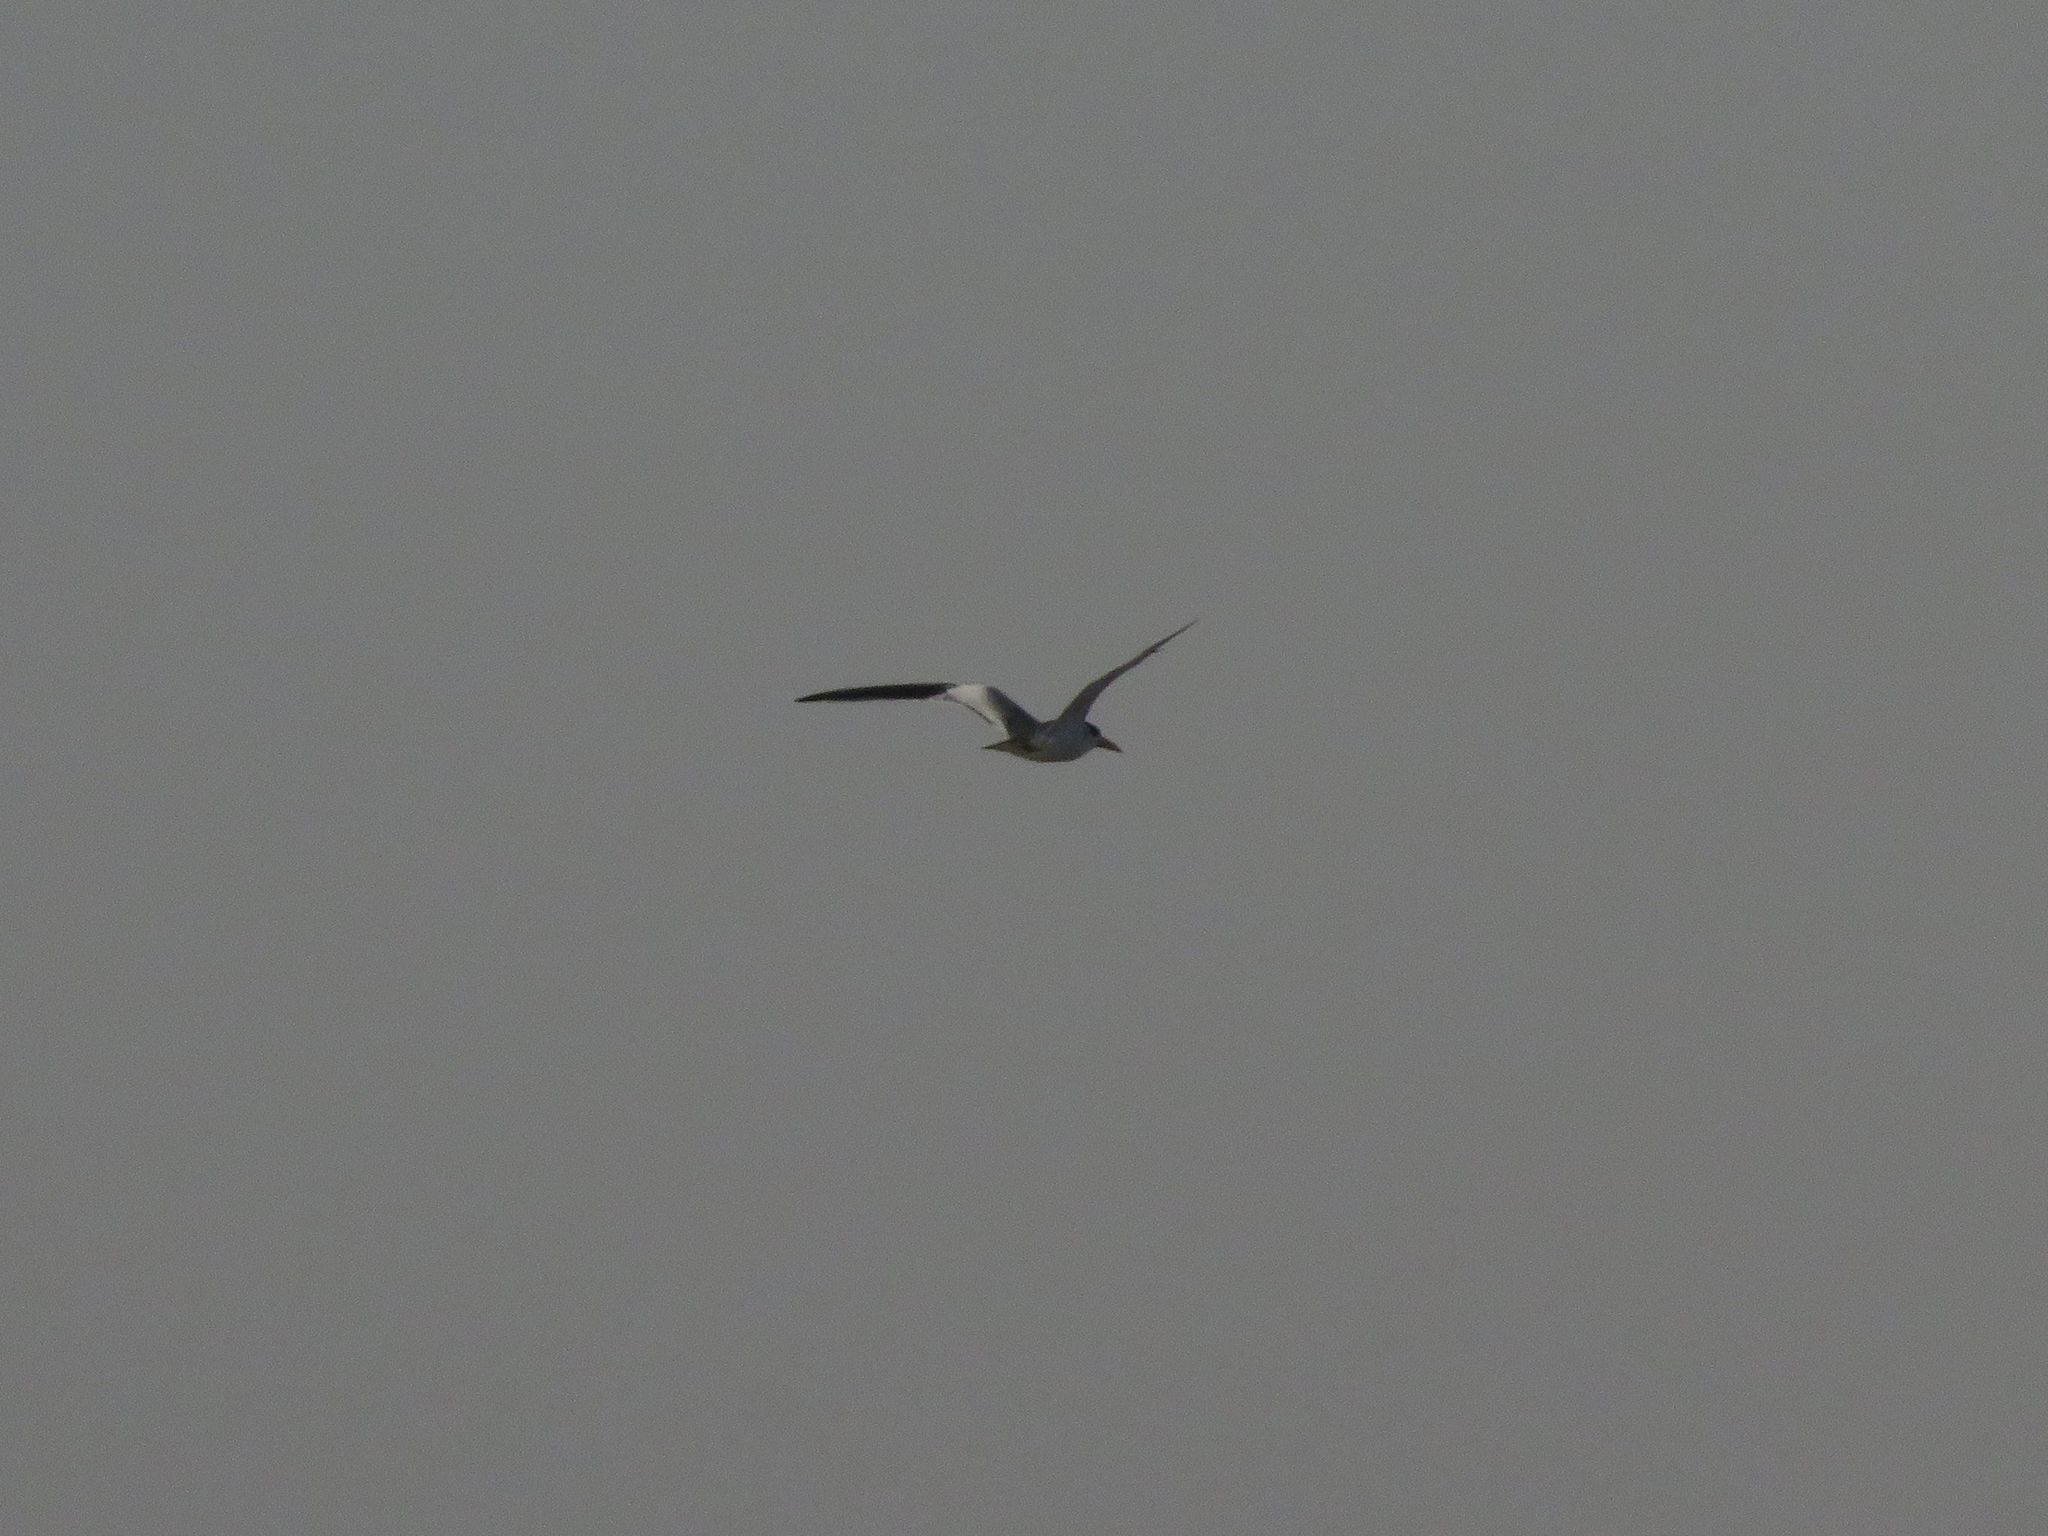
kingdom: Animalia
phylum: Chordata
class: Aves
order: Charadriiformes
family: Laridae
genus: Phaetusa
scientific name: Phaetusa simplex
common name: Large-billed tern
